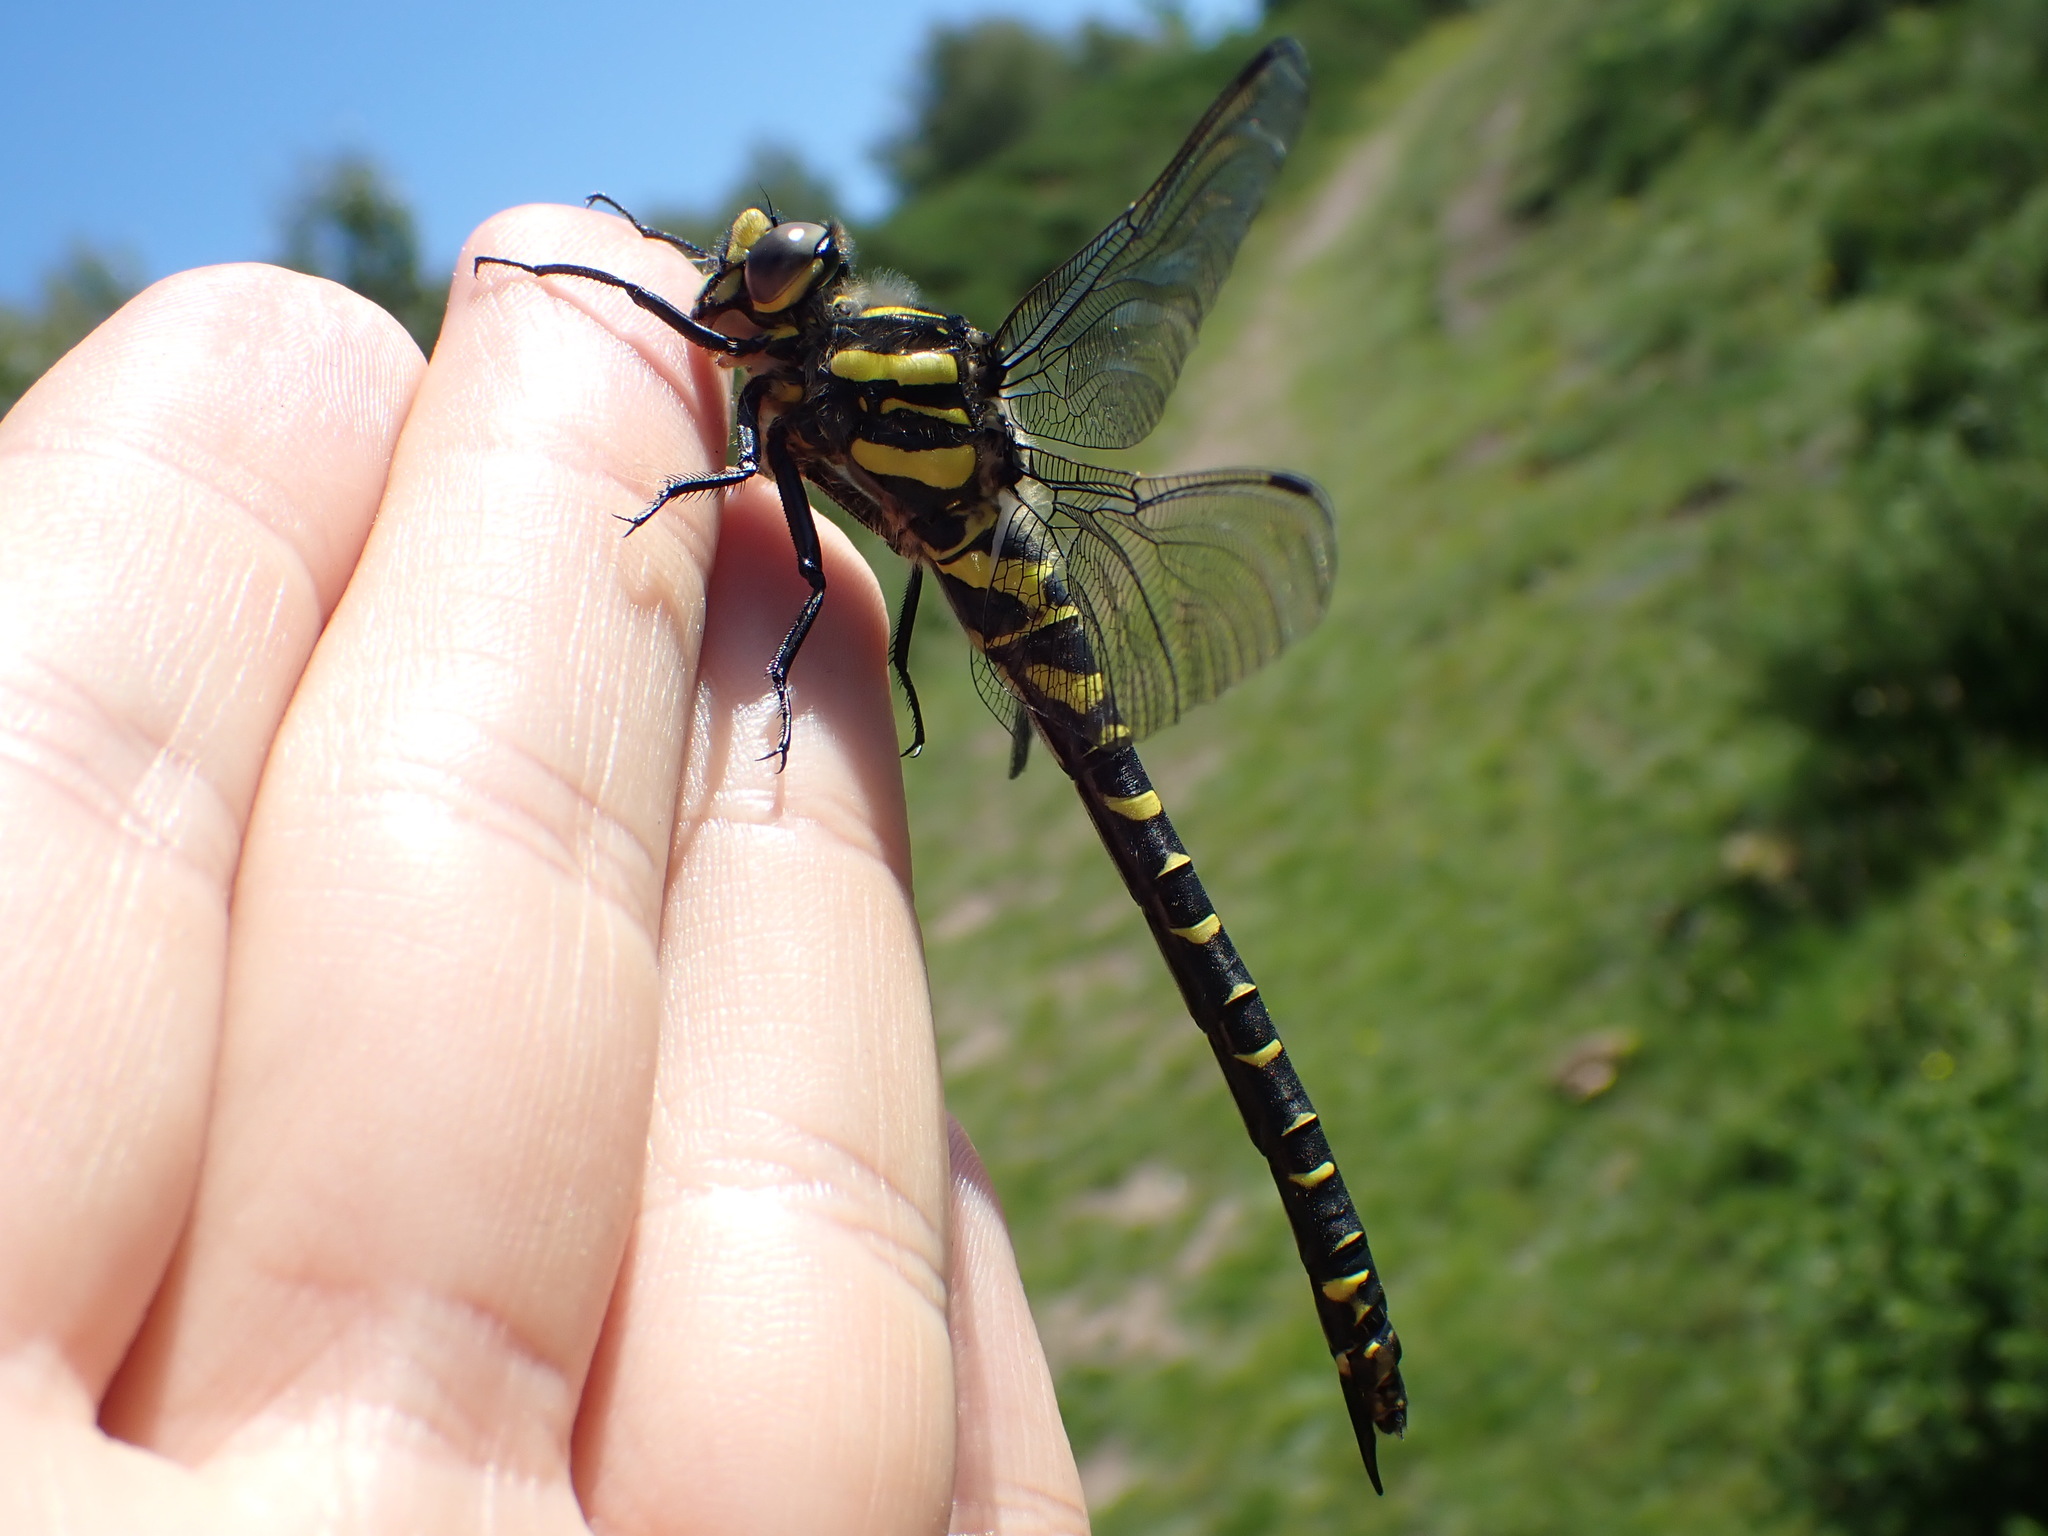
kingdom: Animalia
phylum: Arthropoda
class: Insecta
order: Odonata
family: Cordulegastridae
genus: Cordulegaster
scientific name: Cordulegaster boltonii
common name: Golden-ringed dragonfly
